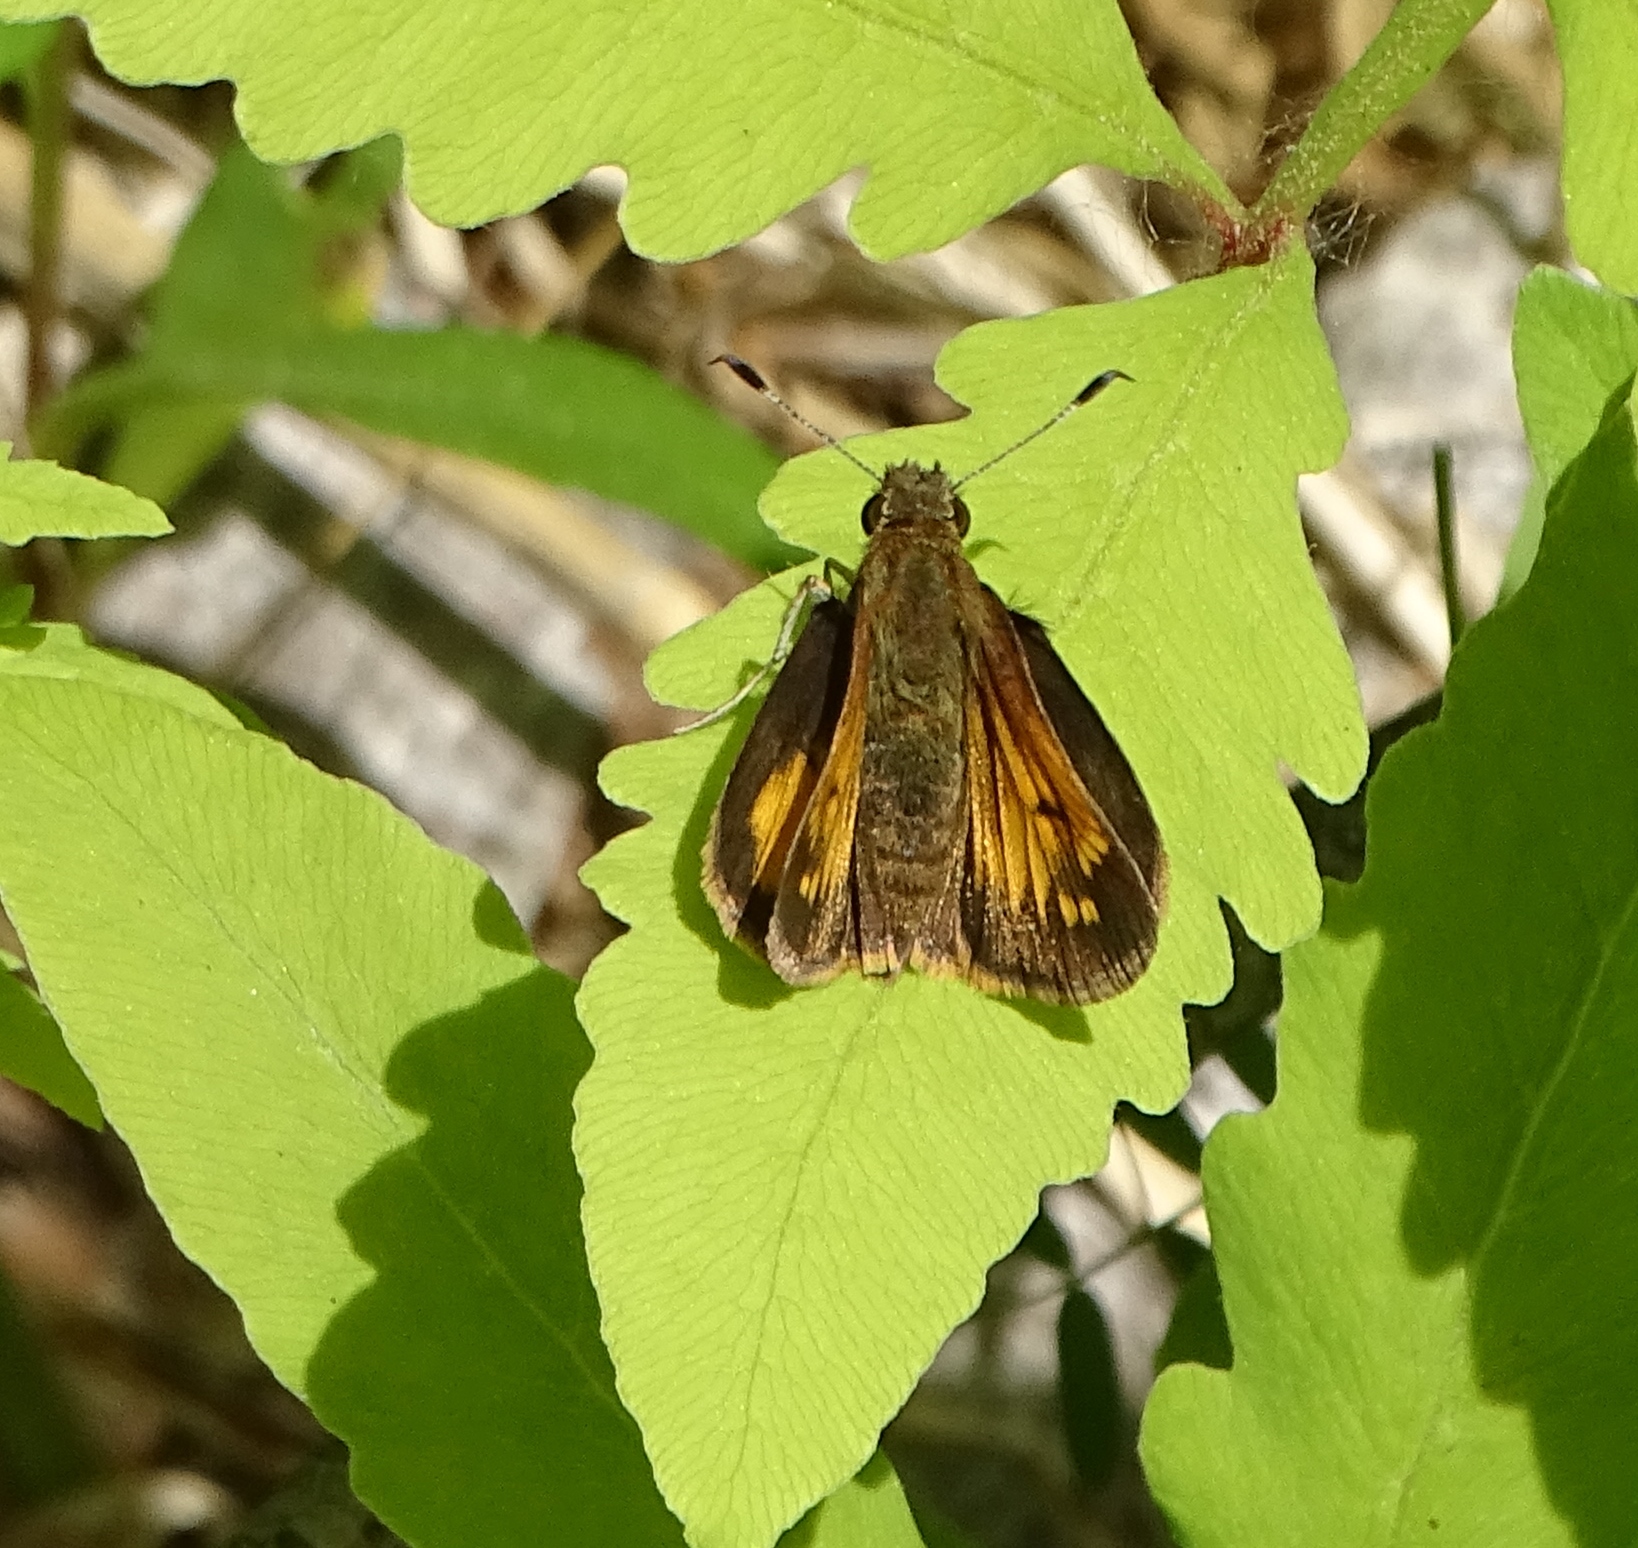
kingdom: Animalia
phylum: Arthropoda
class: Insecta
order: Lepidoptera
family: Hesperiidae
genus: Lon
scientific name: Lon hobomok
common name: Hobomok skipper
